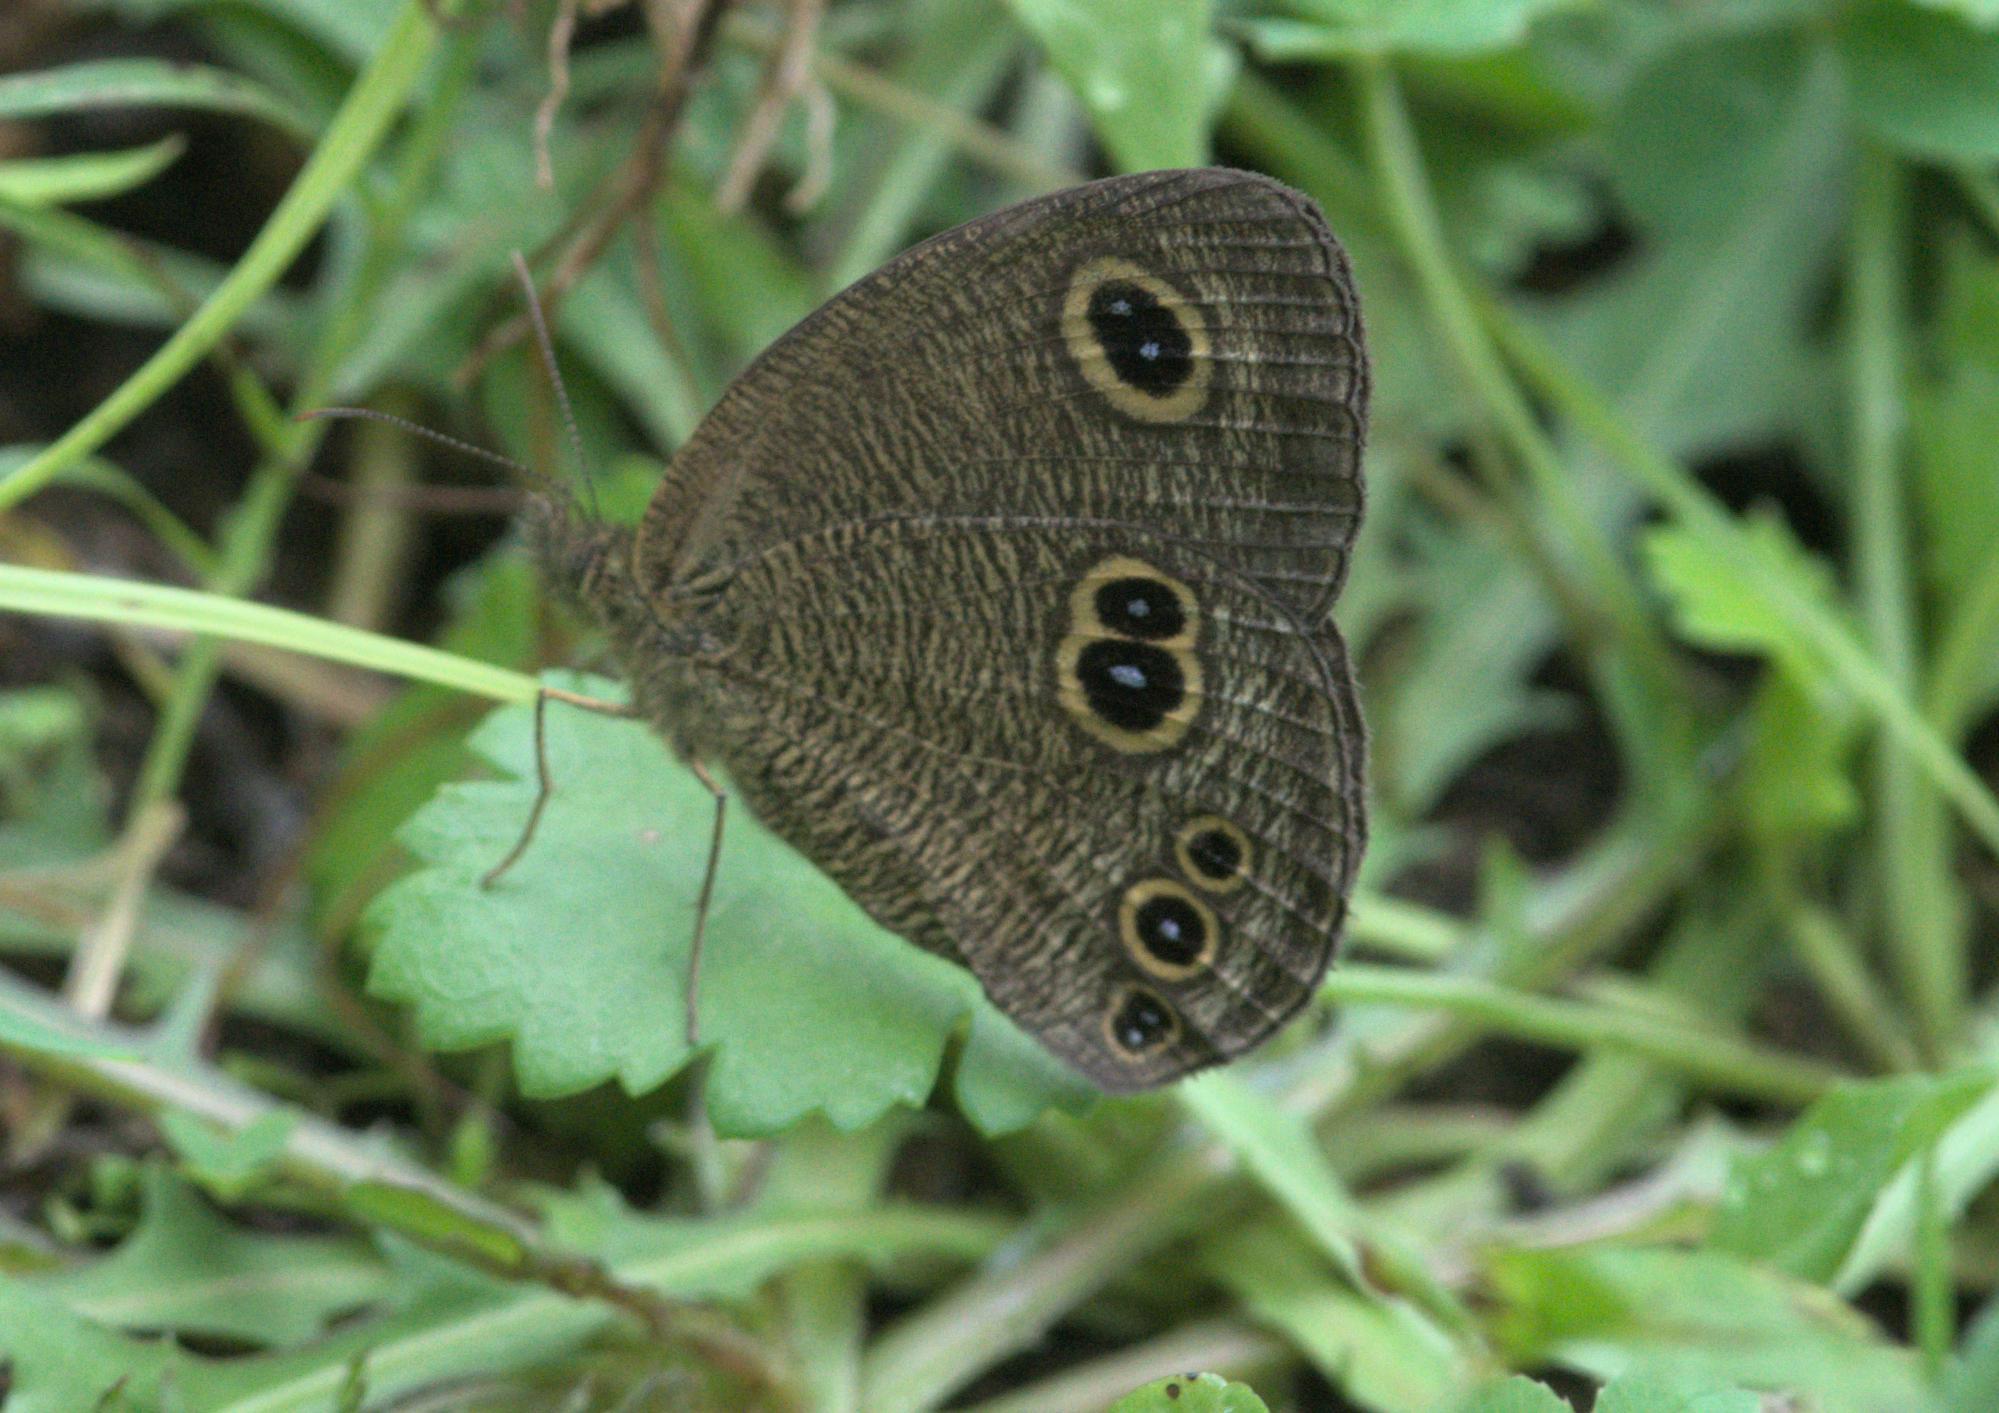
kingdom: Animalia
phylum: Arthropoda
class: Insecta
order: Lepidoptera
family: Nymphalidae
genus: Ypthima
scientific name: Ypthima nikaea
